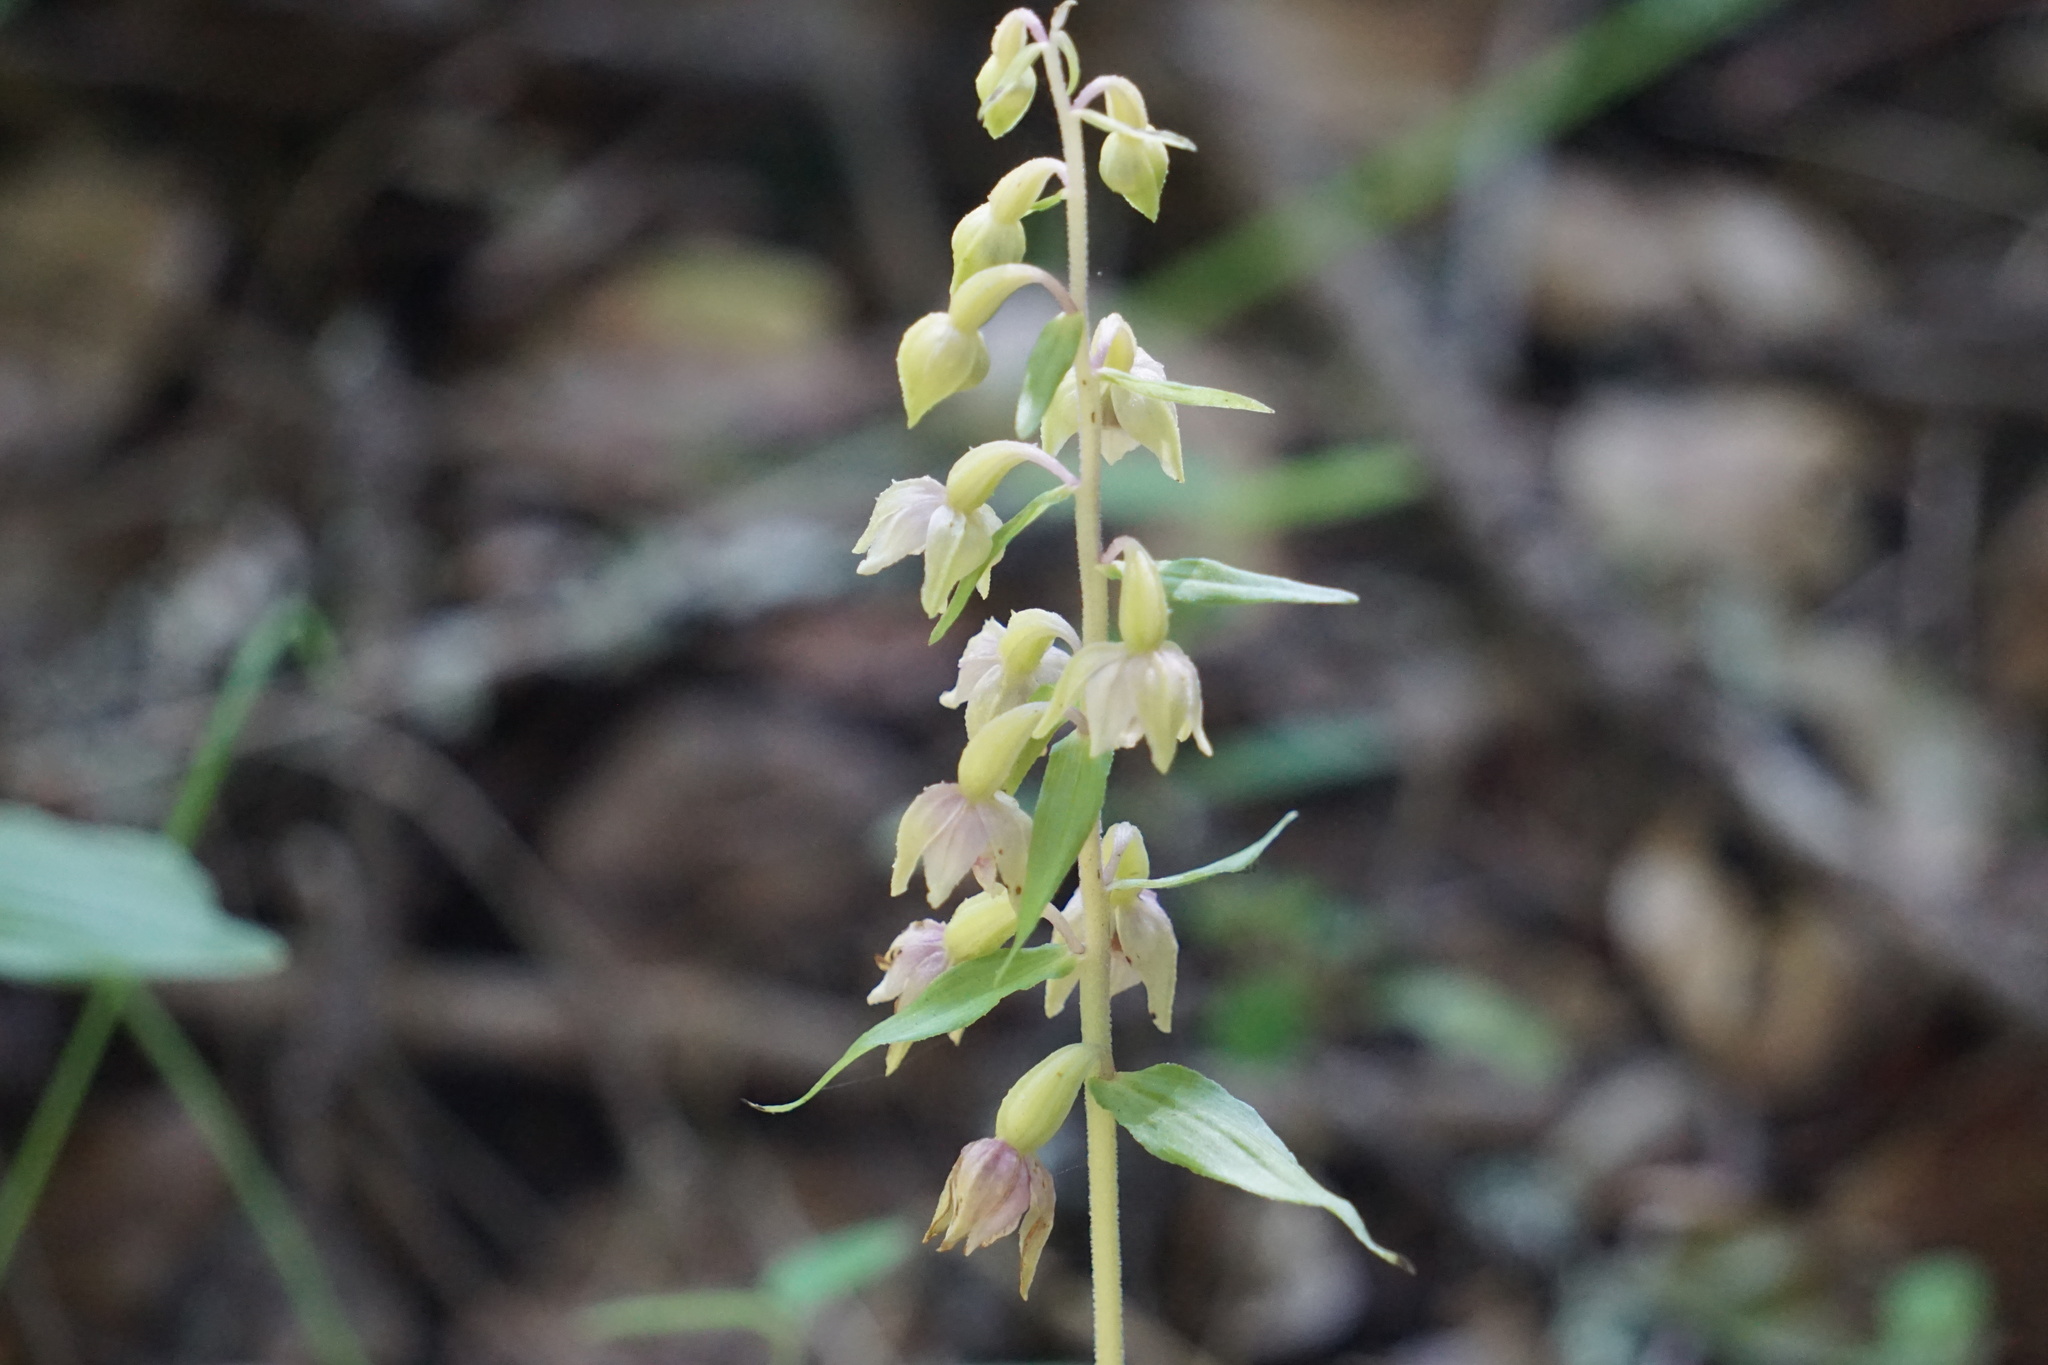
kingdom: Plantae
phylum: Tracheophyta
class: Liliopsida
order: Asparagales
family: Orchidaceae
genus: Epipactis
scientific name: Epipactis helleborine
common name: Broad-leaved helleborine
